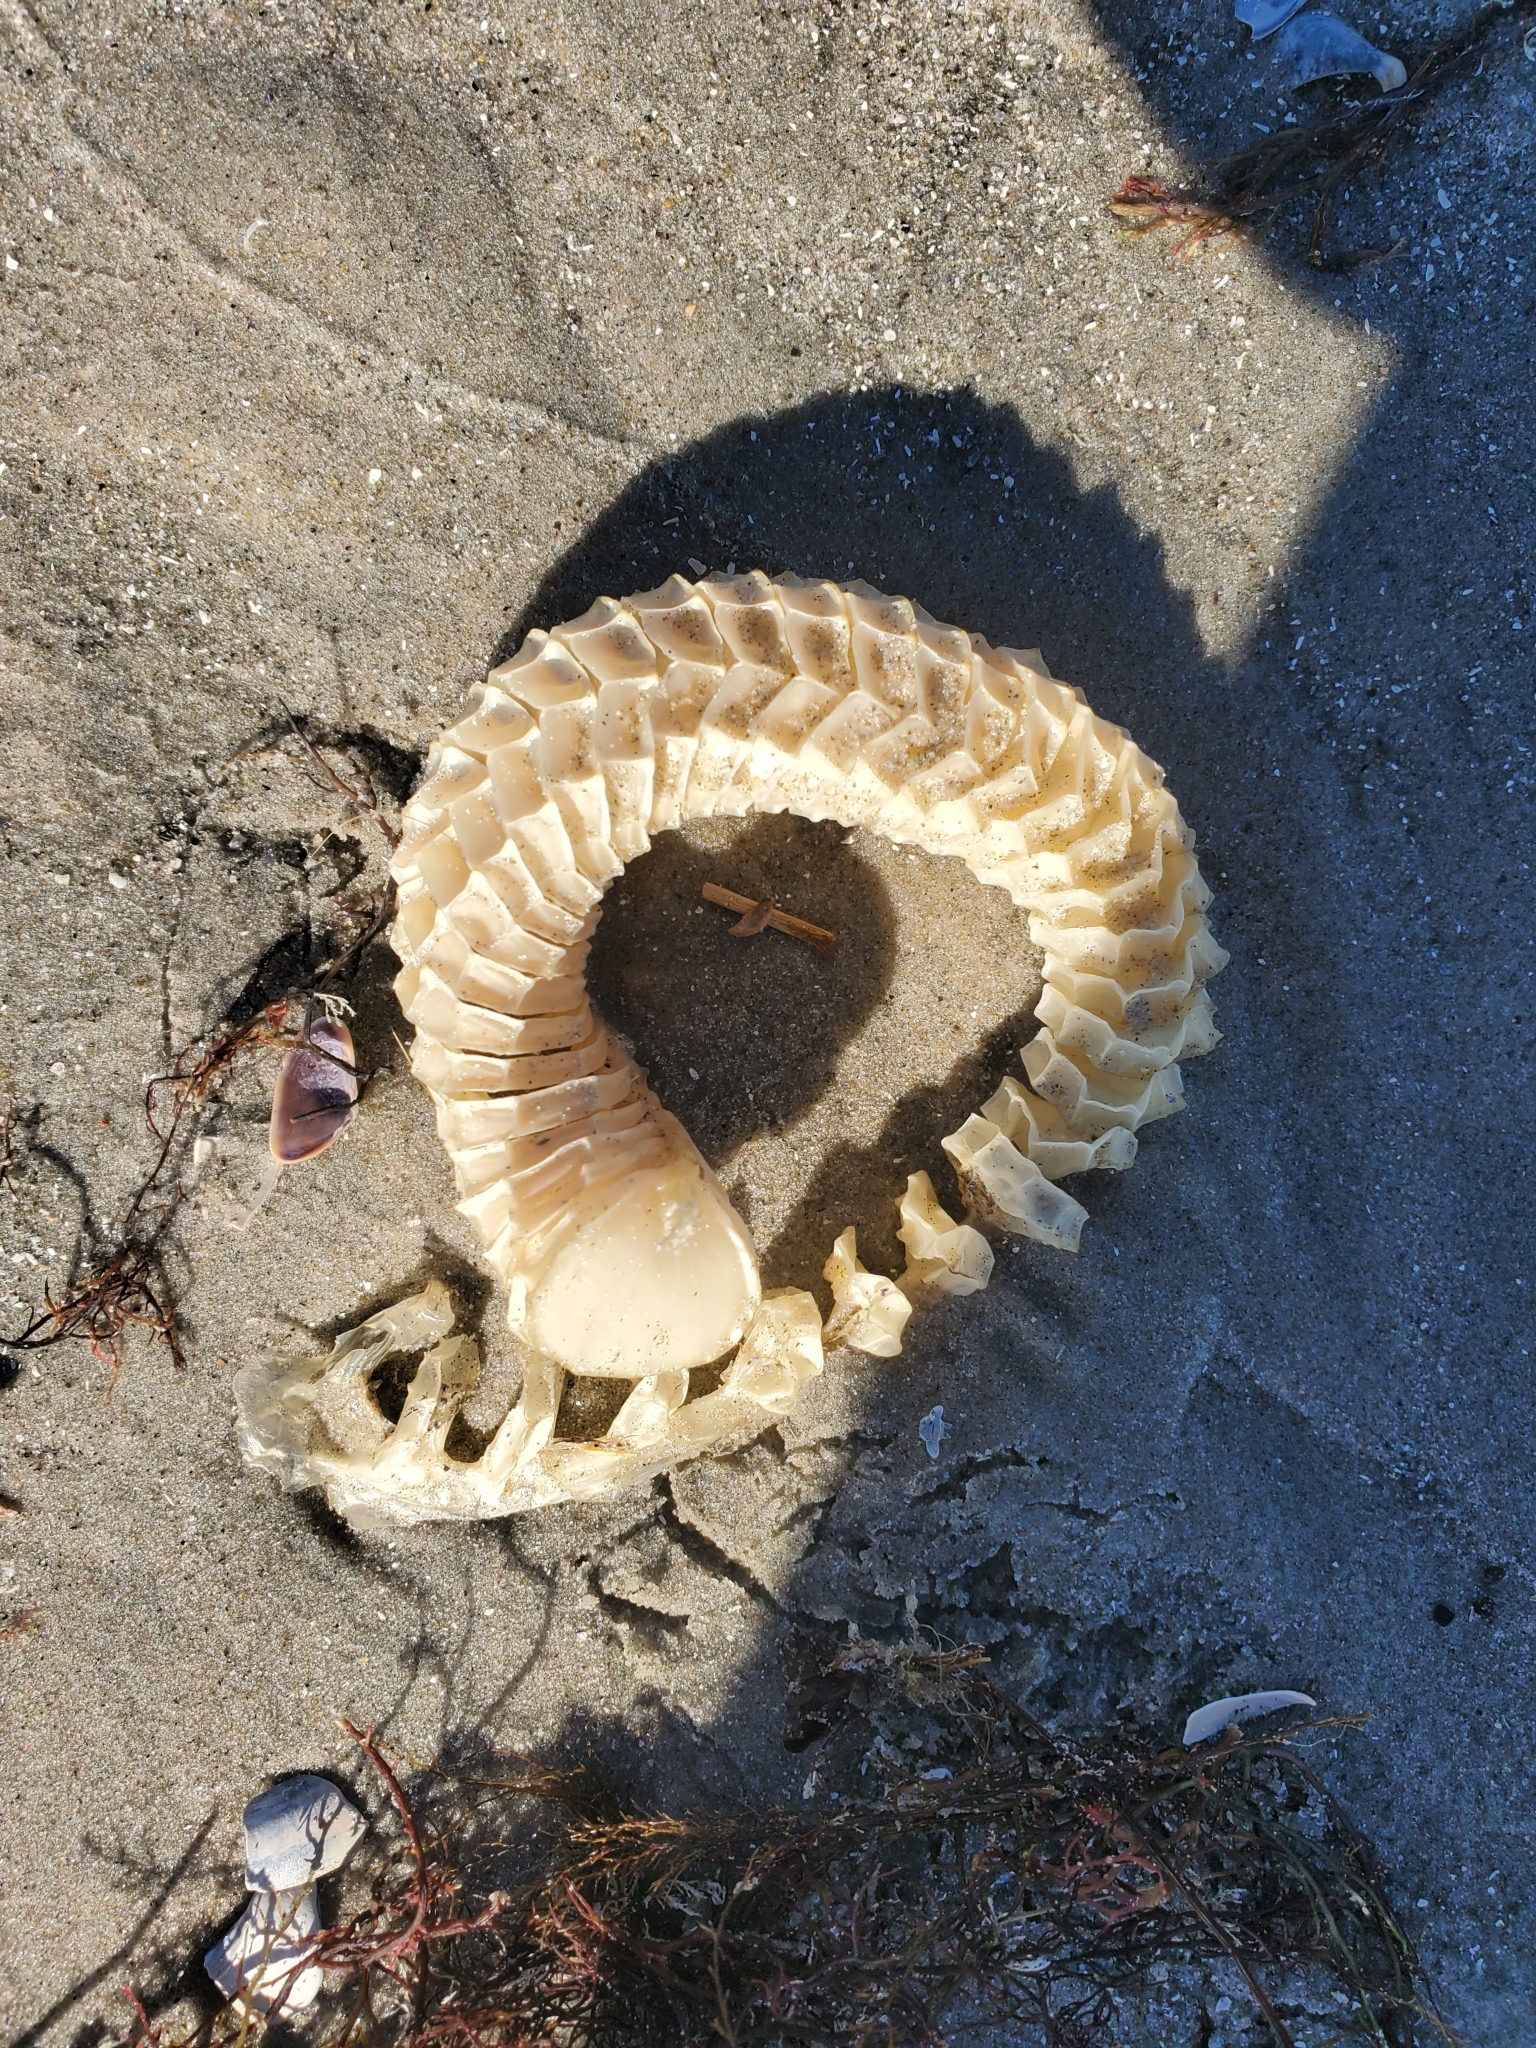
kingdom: Animalia
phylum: Mollusca
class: Gastropoda
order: Neogastropoda
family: Busyconidae
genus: Busycon
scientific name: Busycon carica
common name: Knobbed whelk
